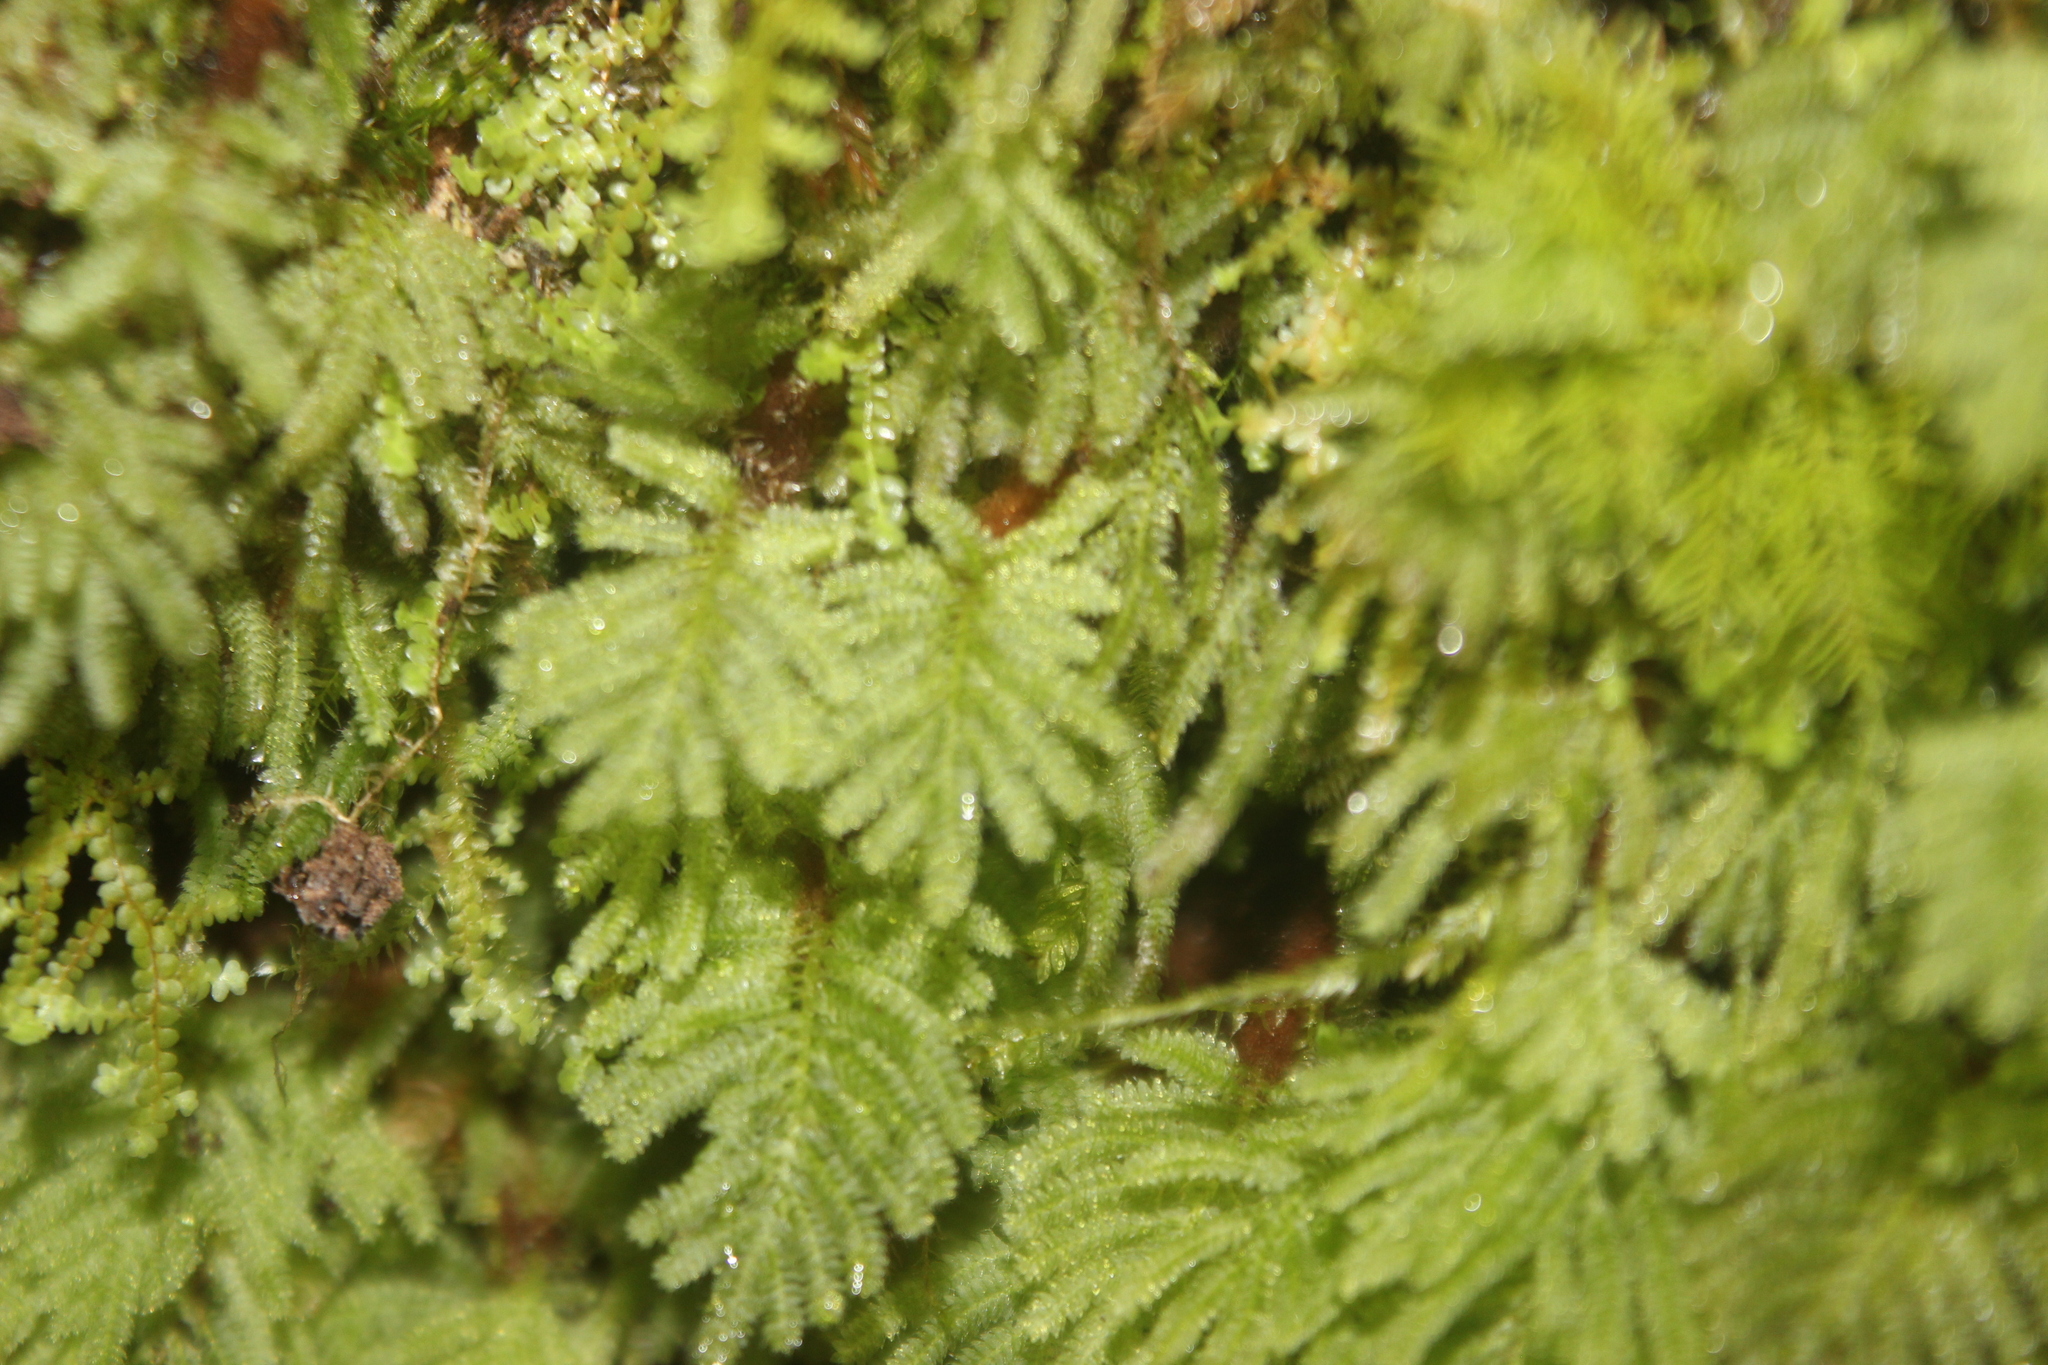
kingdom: Plantae
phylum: Bryophyta
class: Bryopsida
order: Hypopterygiales
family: Hypopterygiaceae
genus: Catharomnion
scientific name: Catharomnion ciliatum
